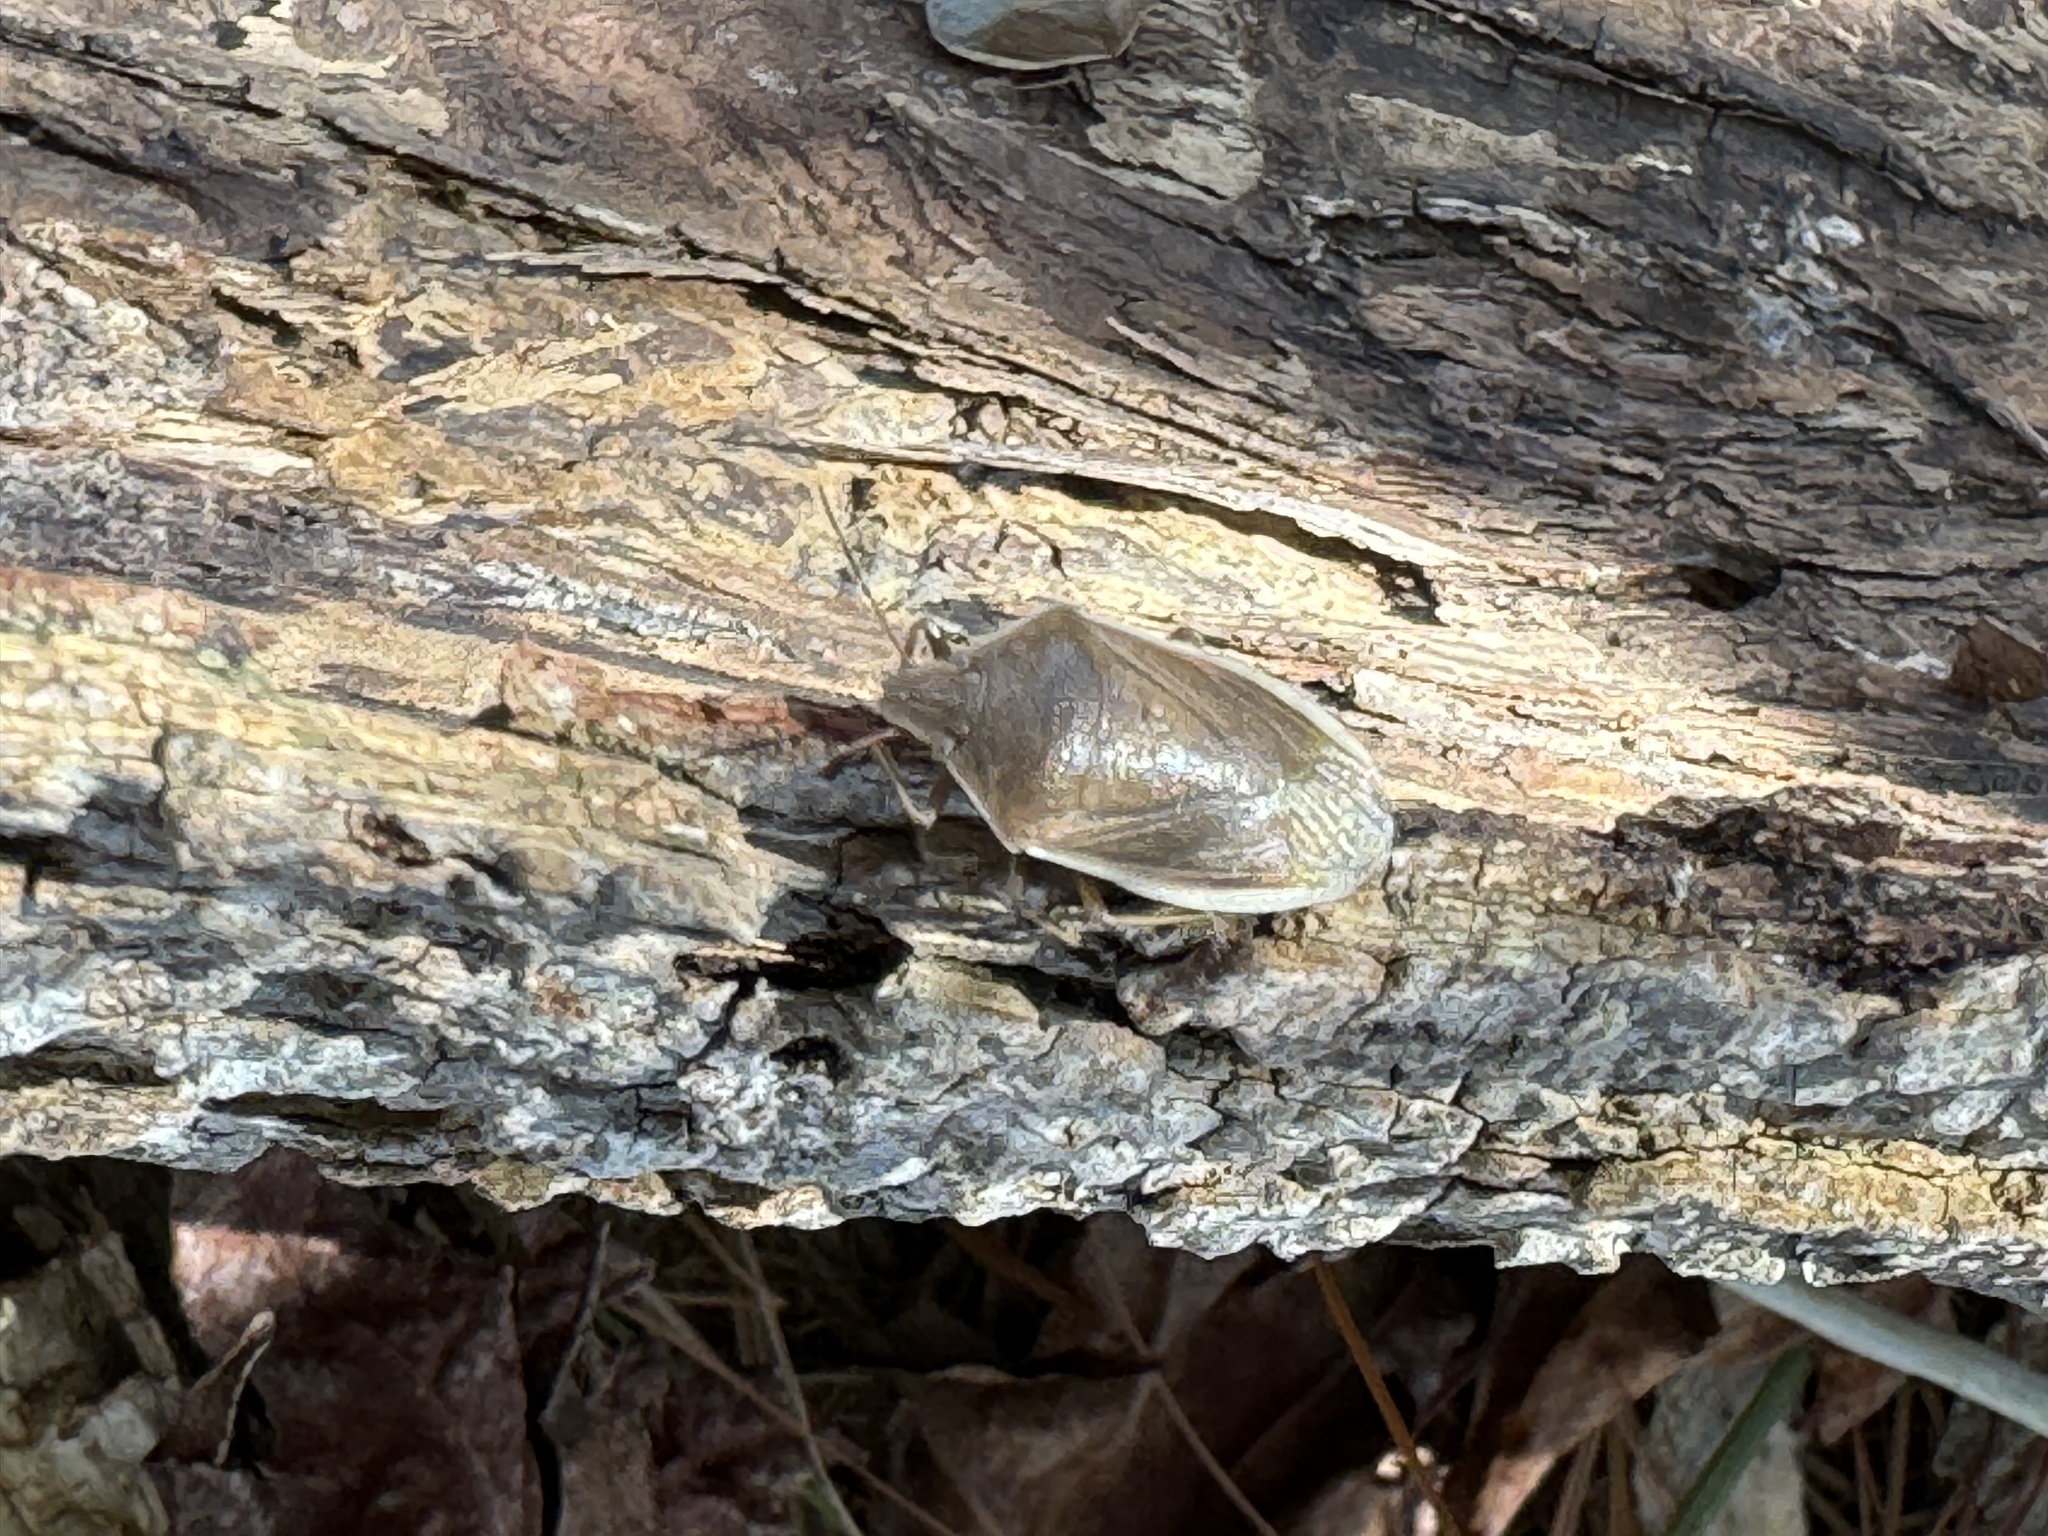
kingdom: Animalia
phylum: Arthropoda
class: Insecta
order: Hemiptera
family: Pentatomidae
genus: Chlorochroa
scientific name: Chlorochroa senilis
